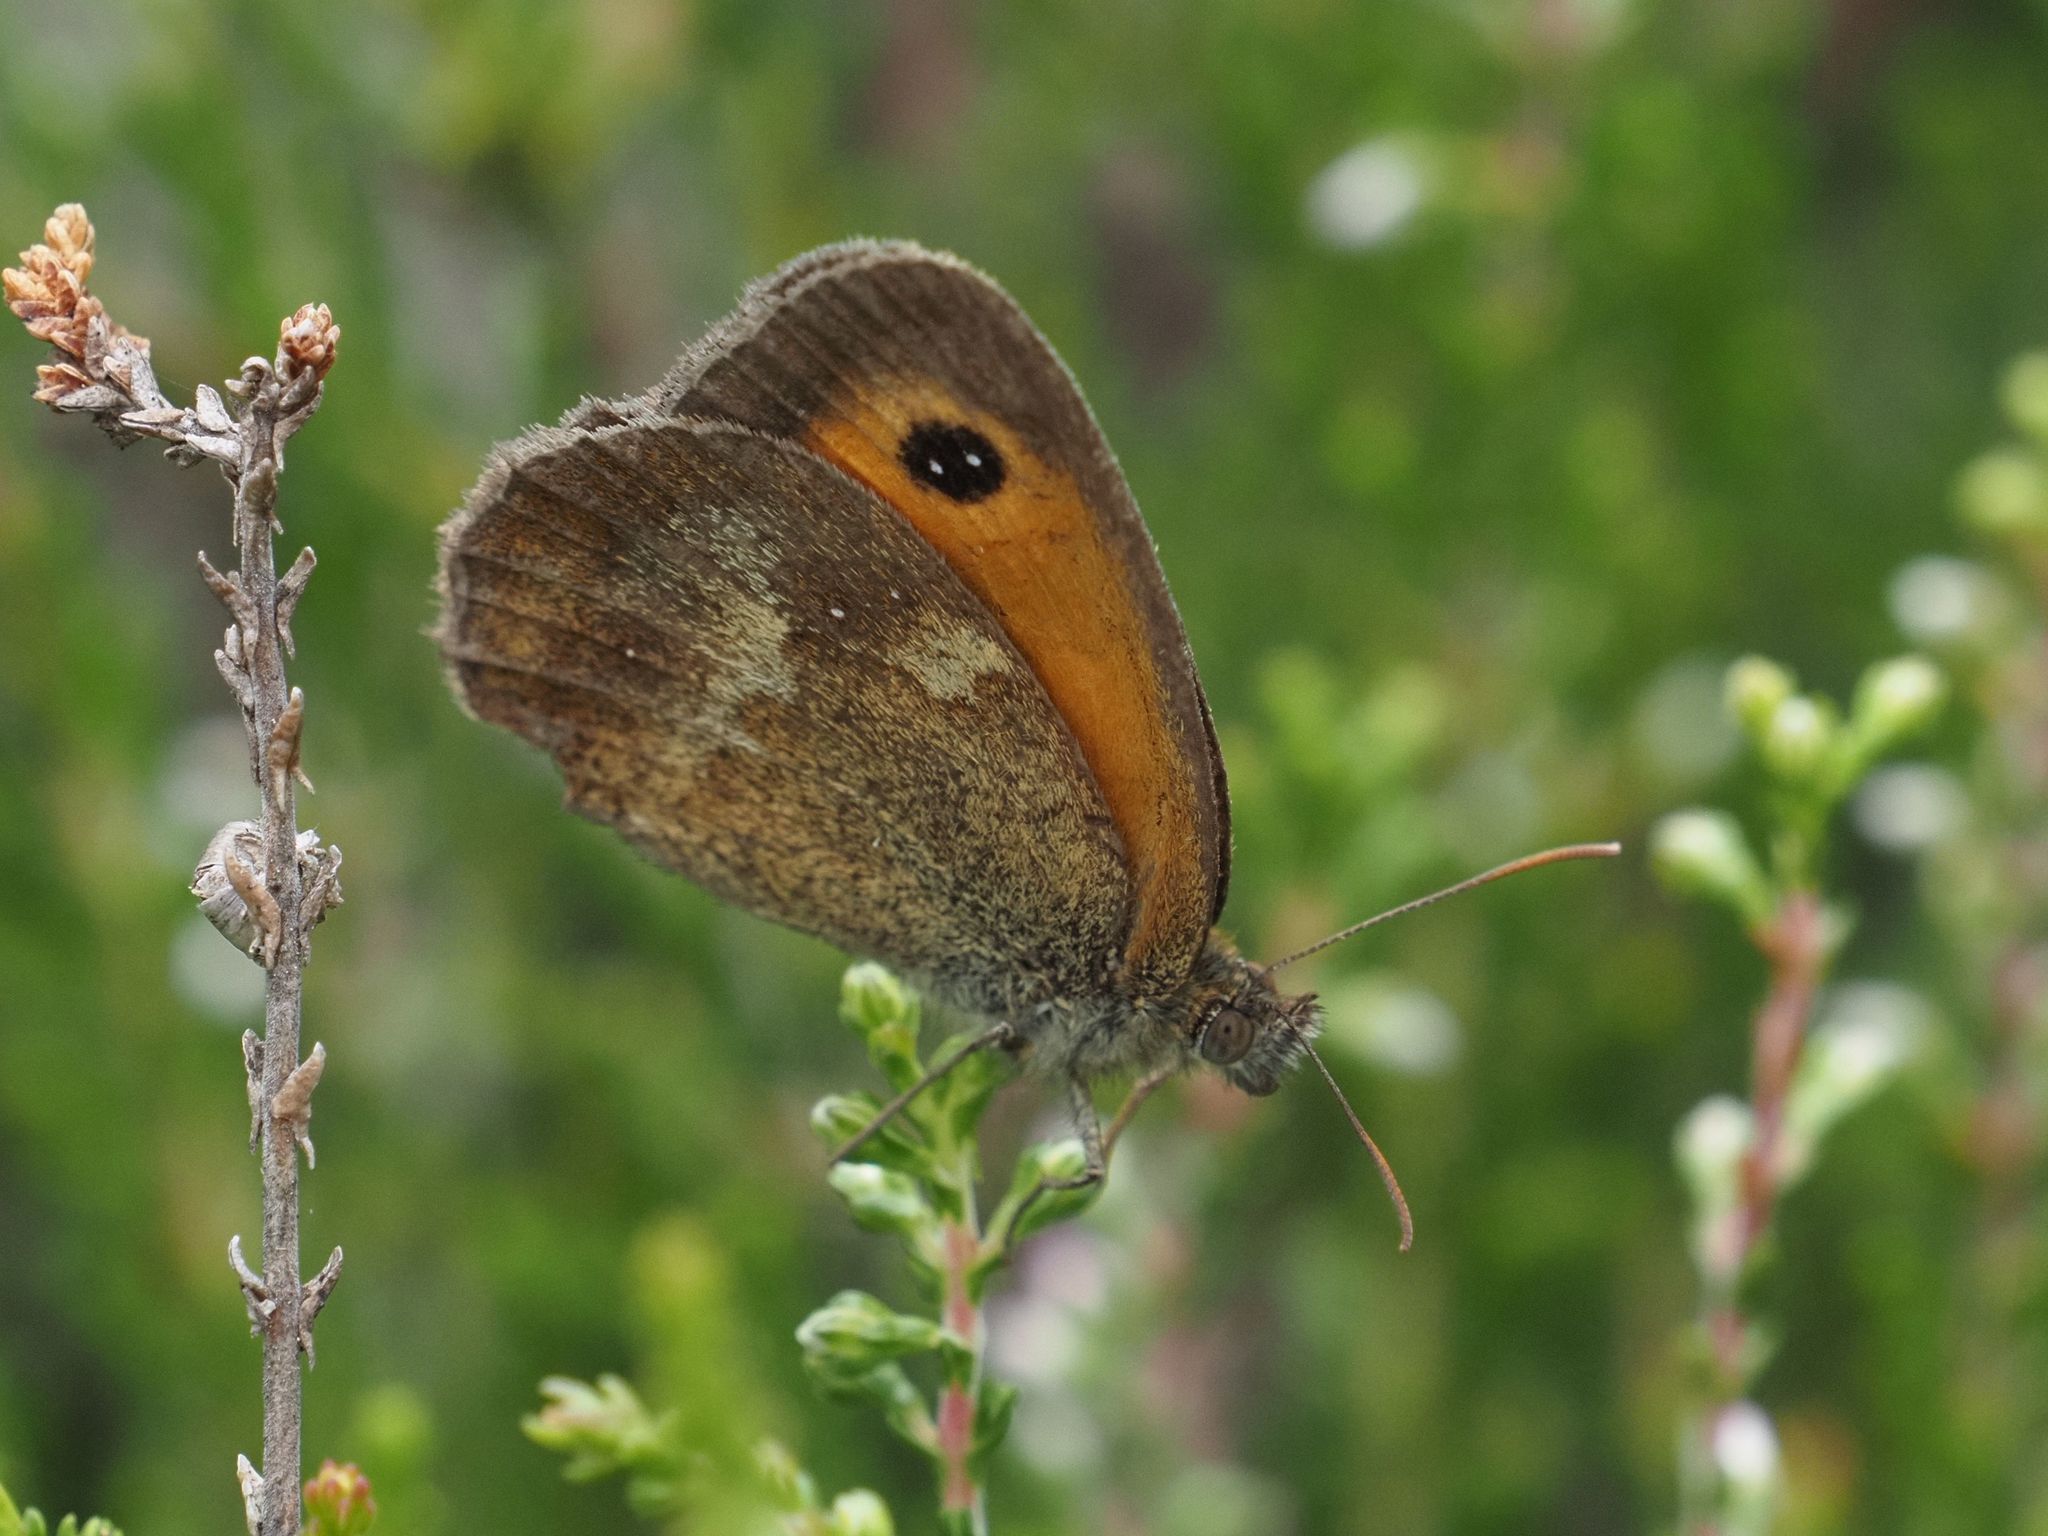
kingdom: Animalia
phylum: Arthropoda
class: Insecta
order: Lepidoptera
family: Nymphalidae
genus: Pyronia
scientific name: Pyronia tithonus
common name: Gatekeeper
